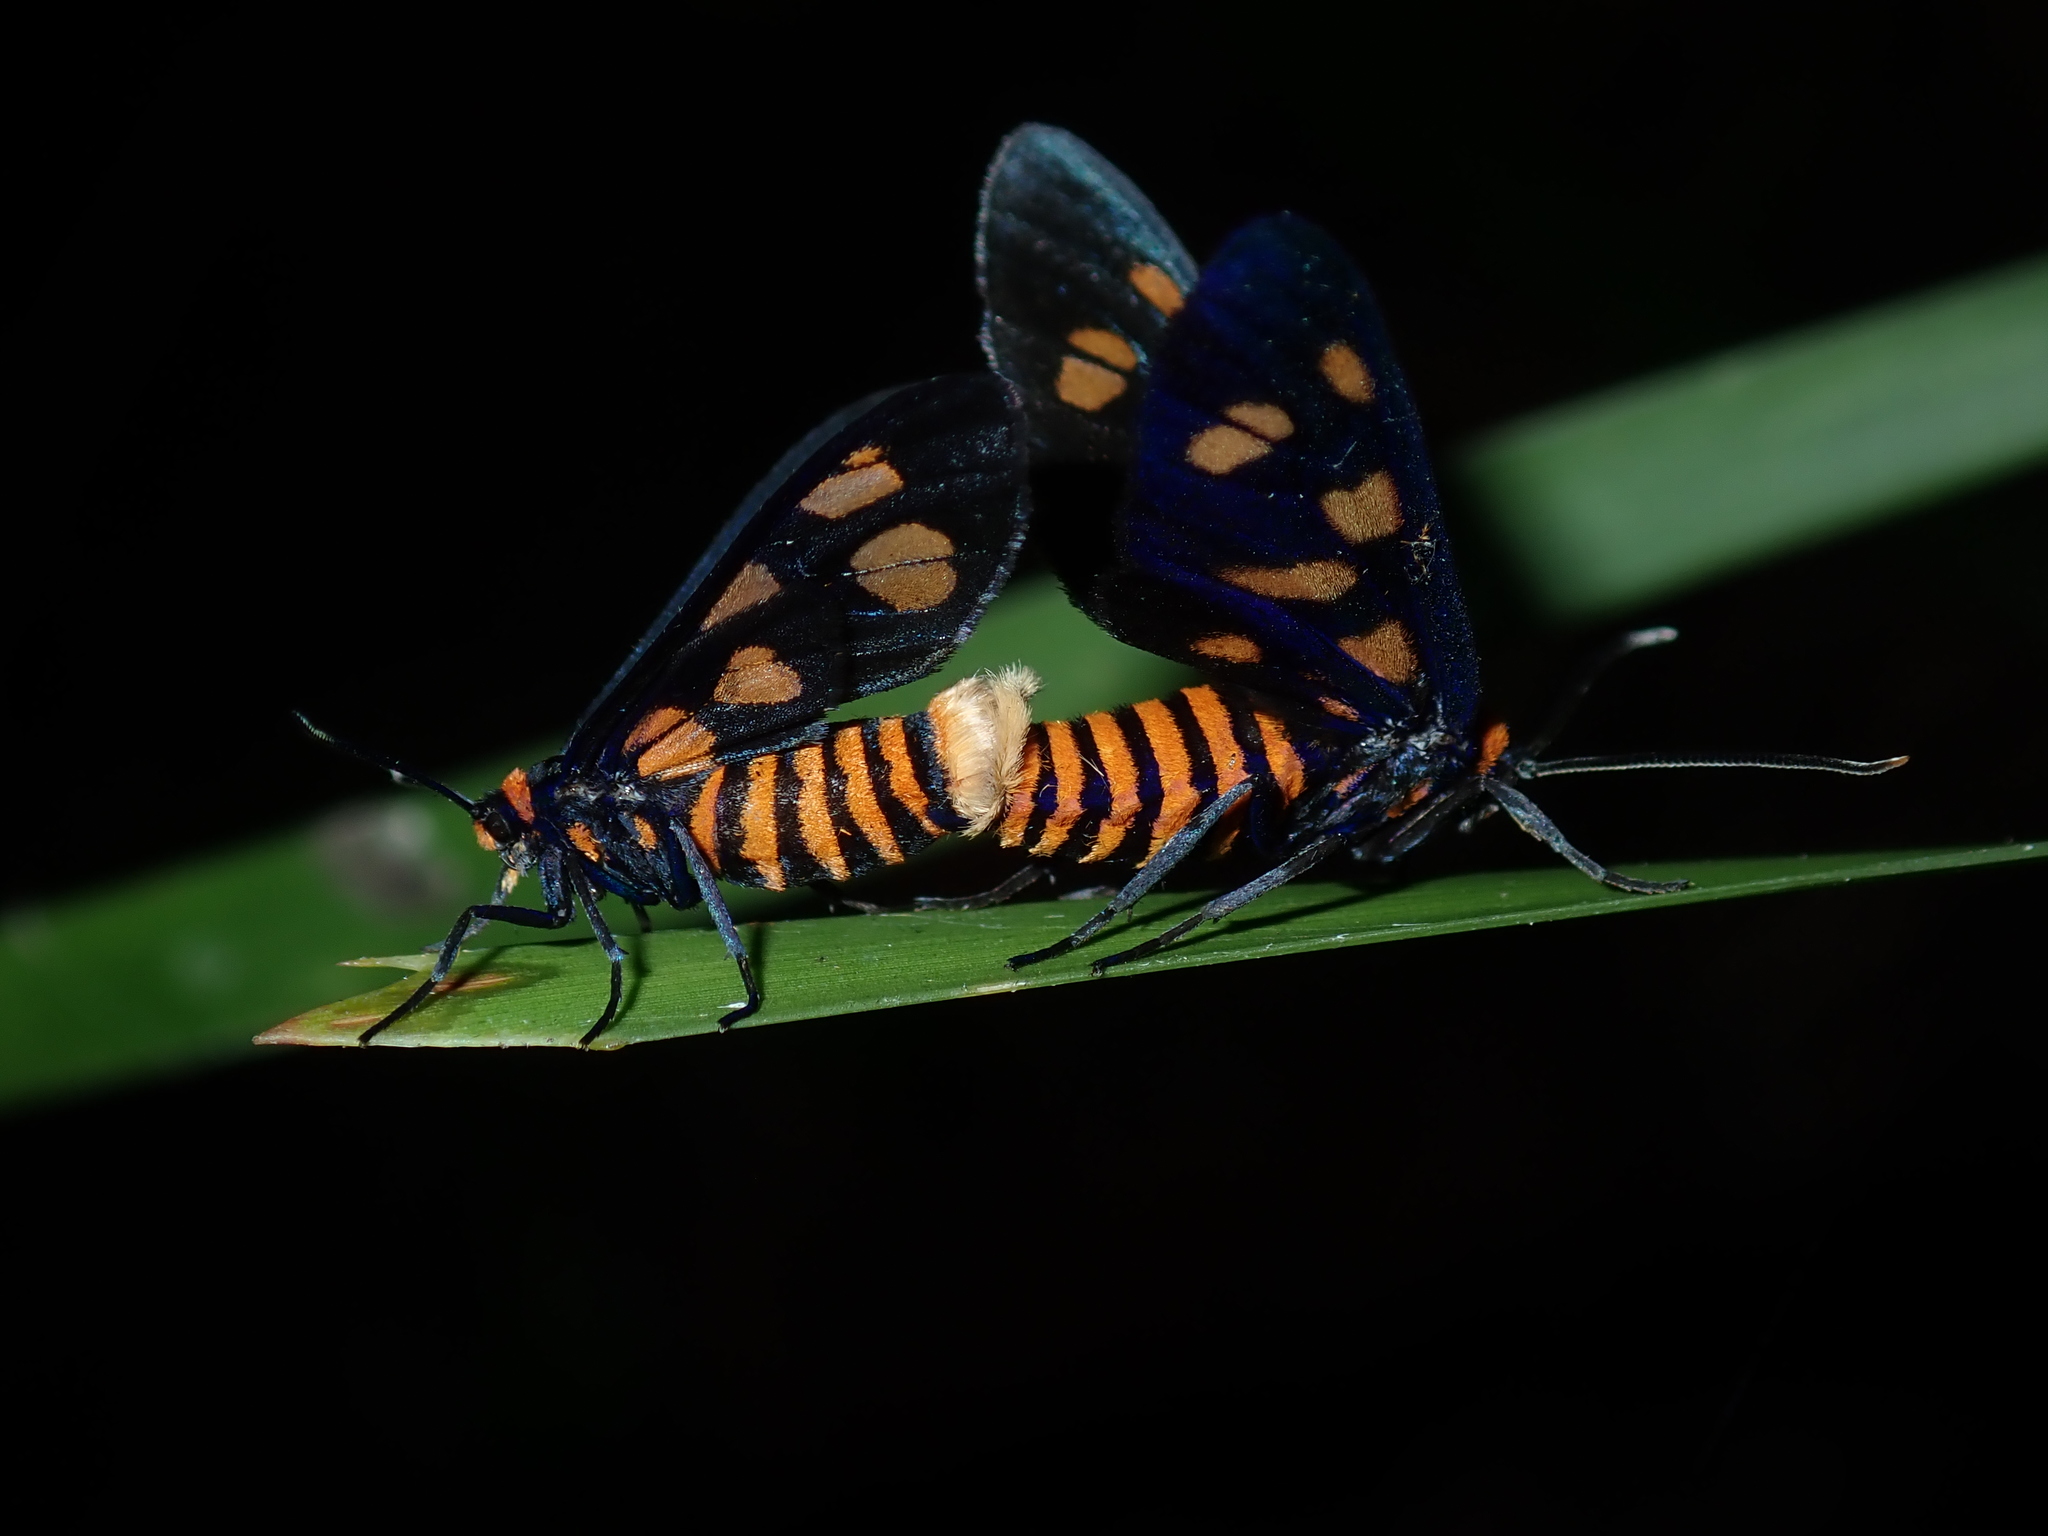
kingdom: Animalia
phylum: Arthropoda
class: Insecta
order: Lepidoptera
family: Erebidae
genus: Amata
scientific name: Amata nigriceps
